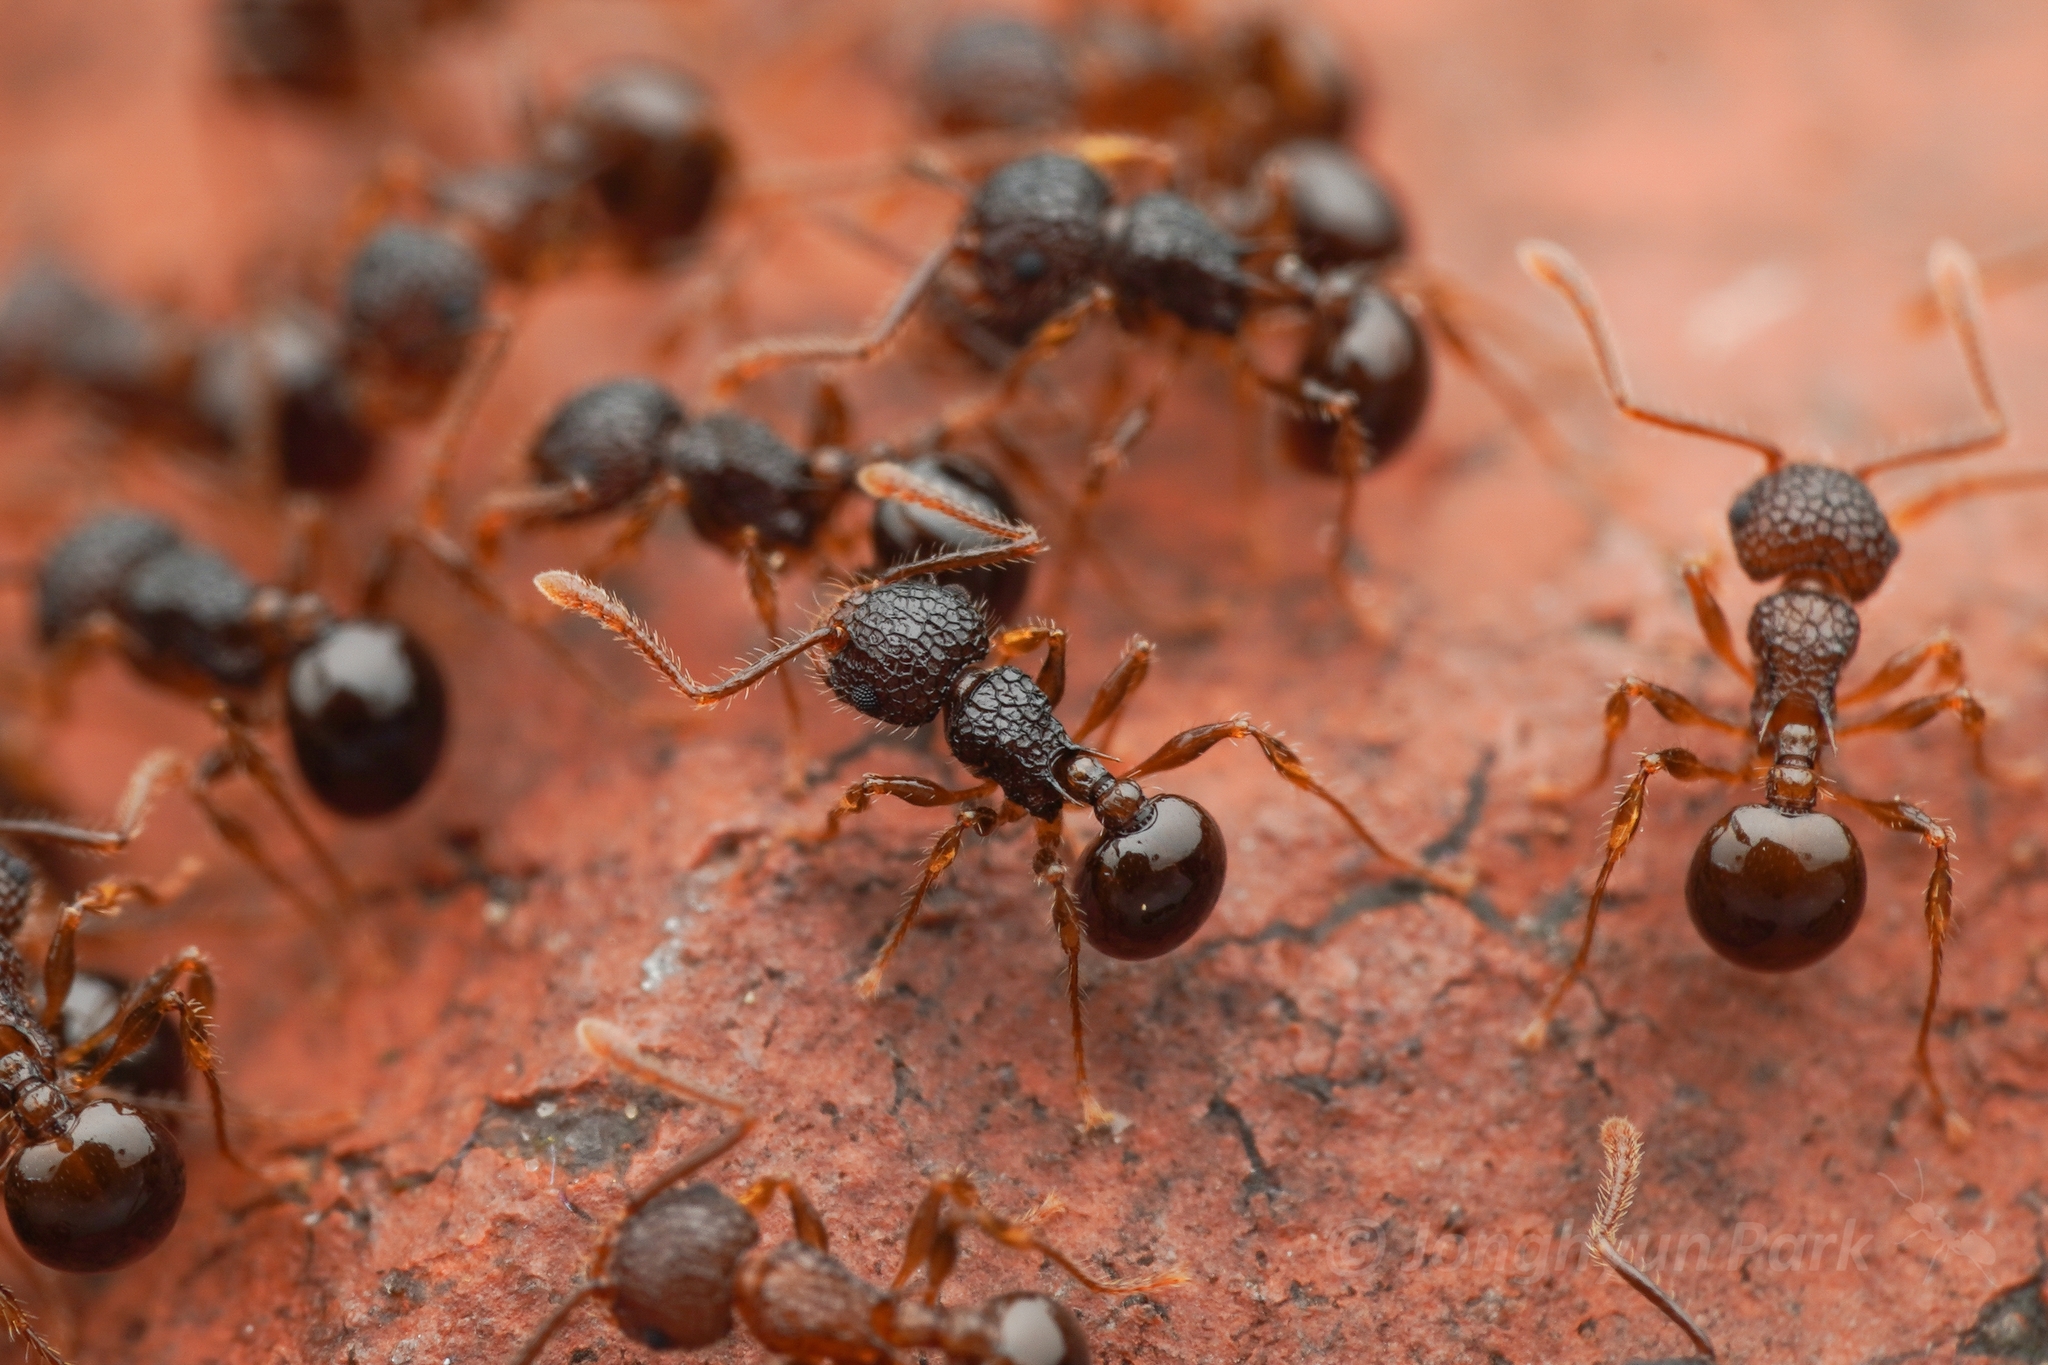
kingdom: Animalia
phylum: Arthropoda
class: Insecta
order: Hymenoptera
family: Formicidae
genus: Pristomyrmex
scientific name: Pristomyrmex punctatus
